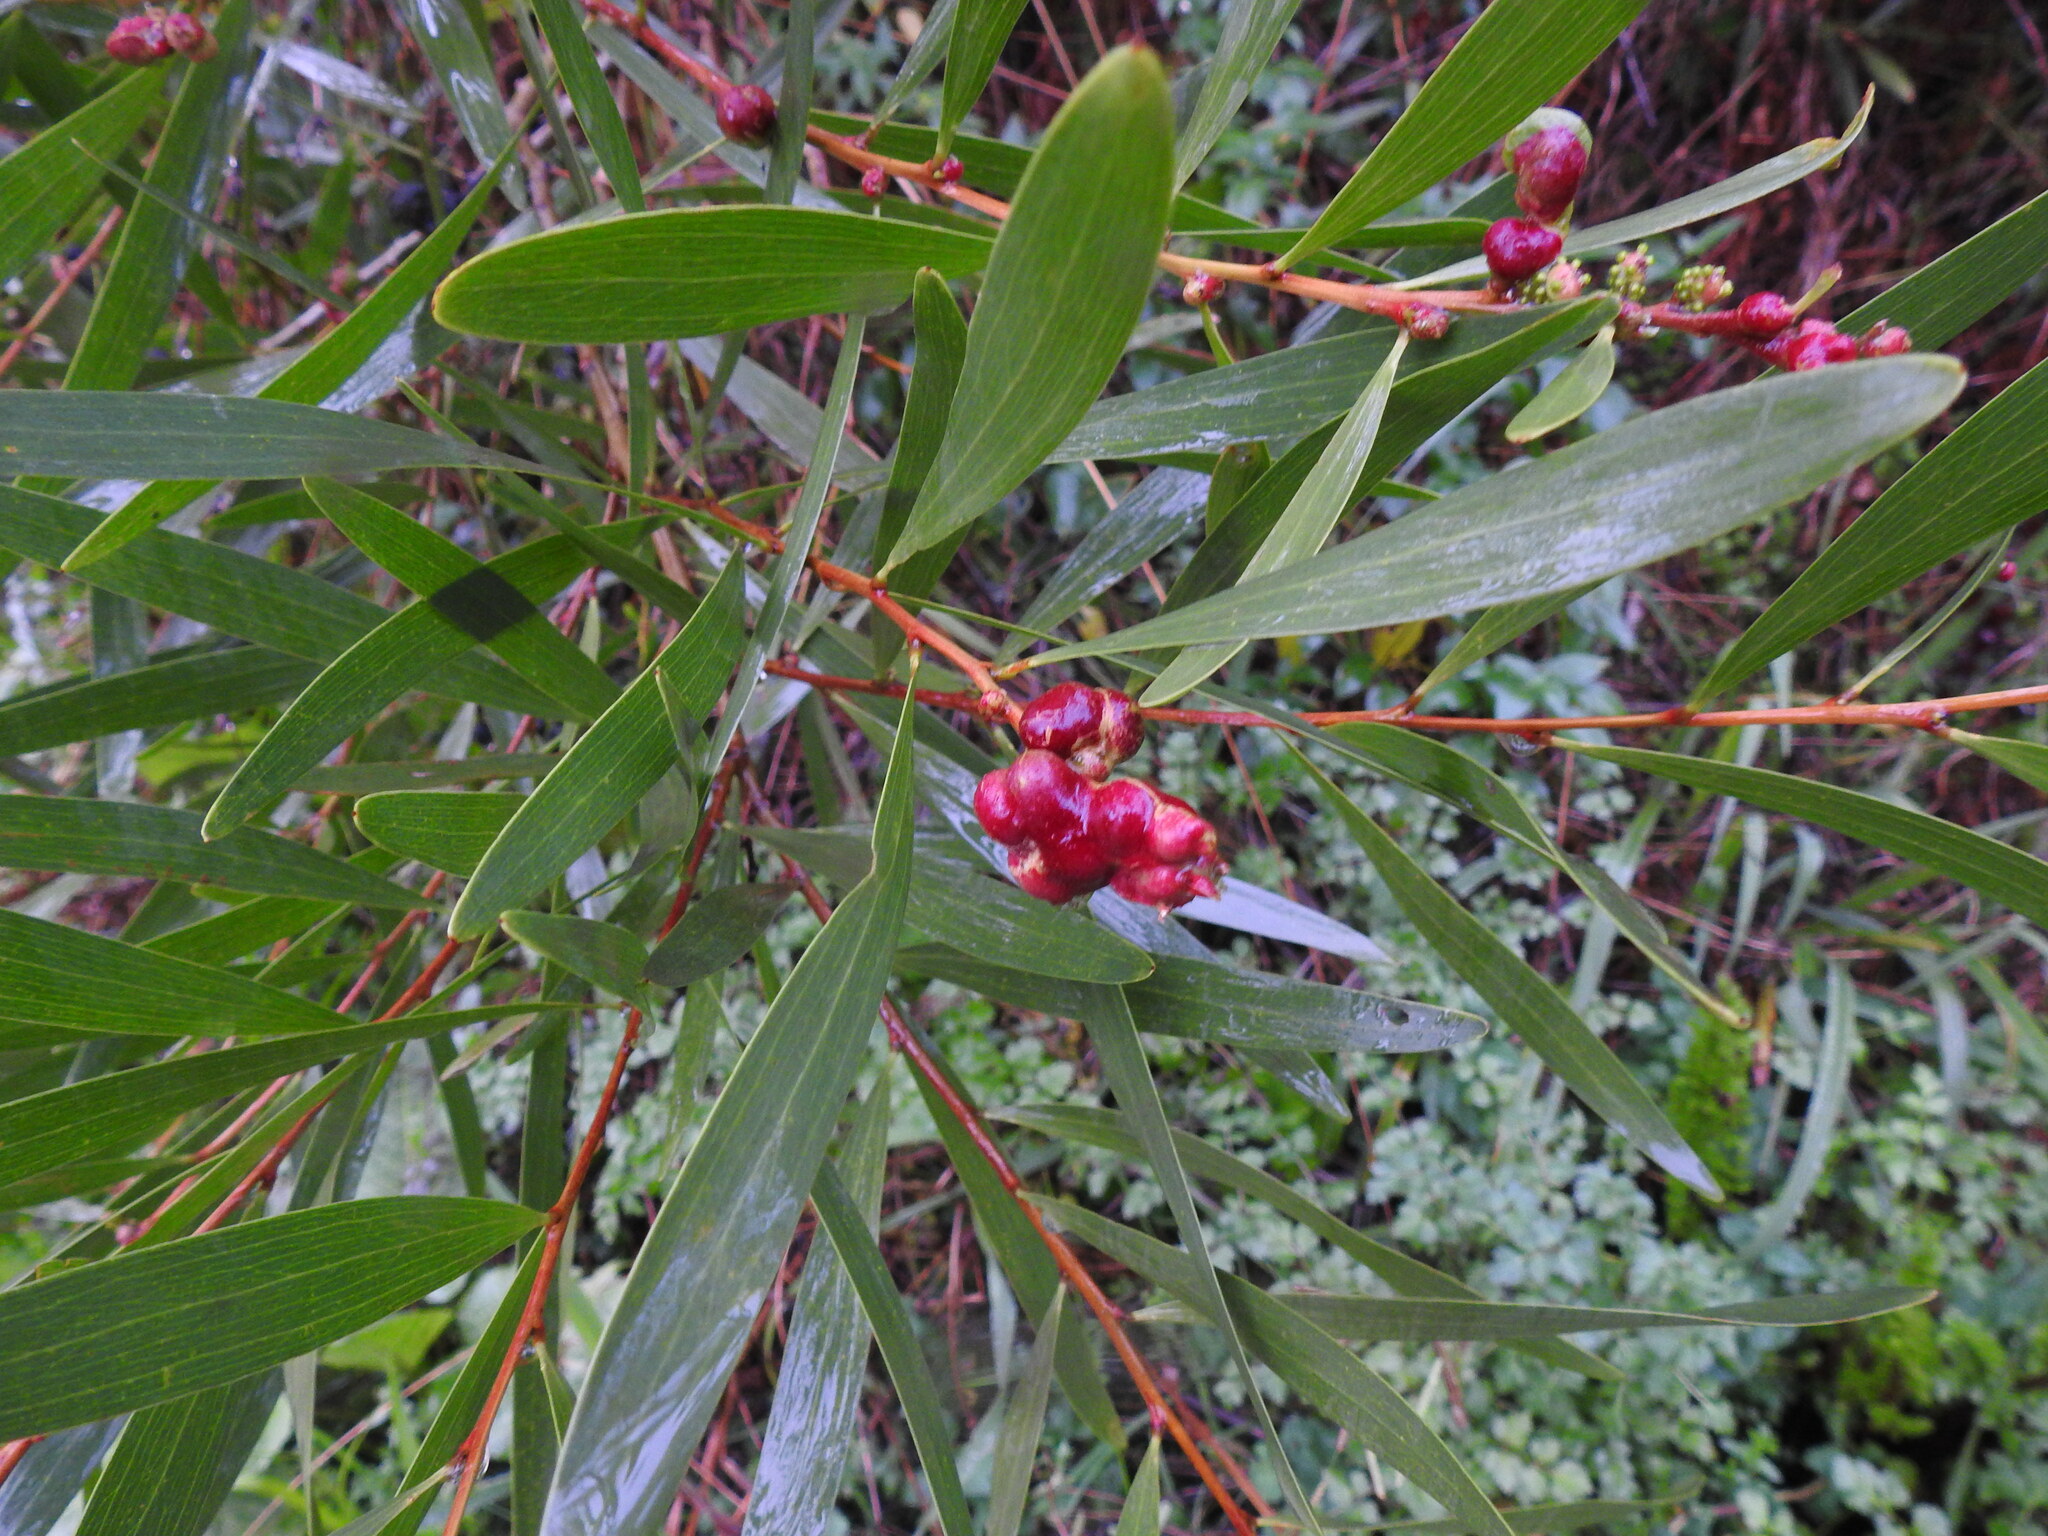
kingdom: Animalia
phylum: Arthropoda
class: Insecta
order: Hymenoptera
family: Pteromalidae
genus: Trichilogaster
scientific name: Trichilogaster acaciaelongifoliae
